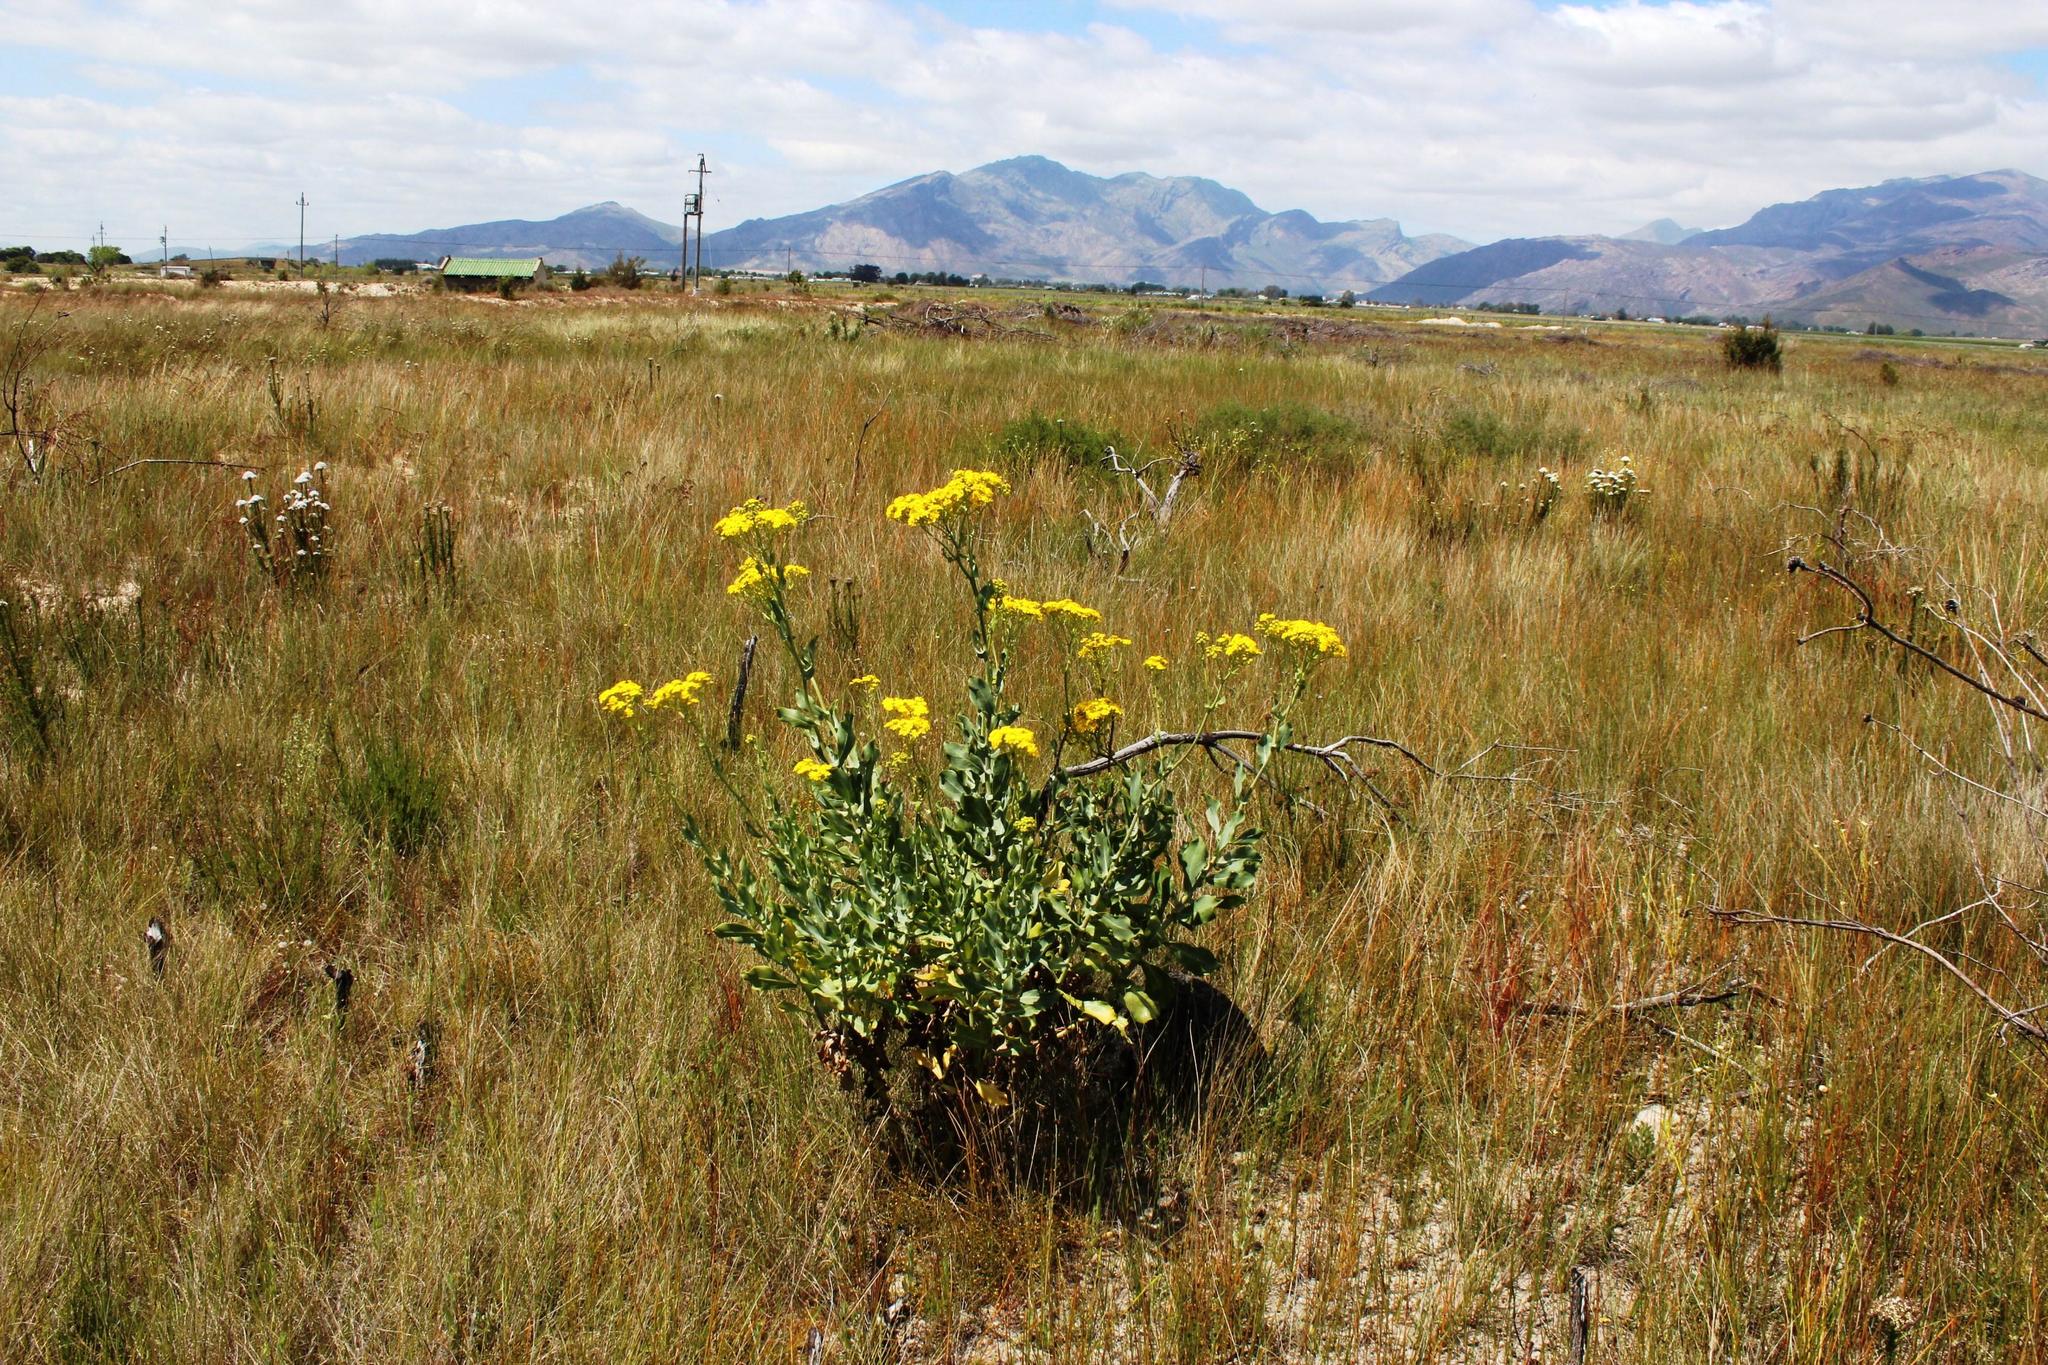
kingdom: Plantae
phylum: Tracheophyta
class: Magnoliopsida
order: Asterales
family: Asteraceae
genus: Othonna
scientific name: Othonna parviflora
